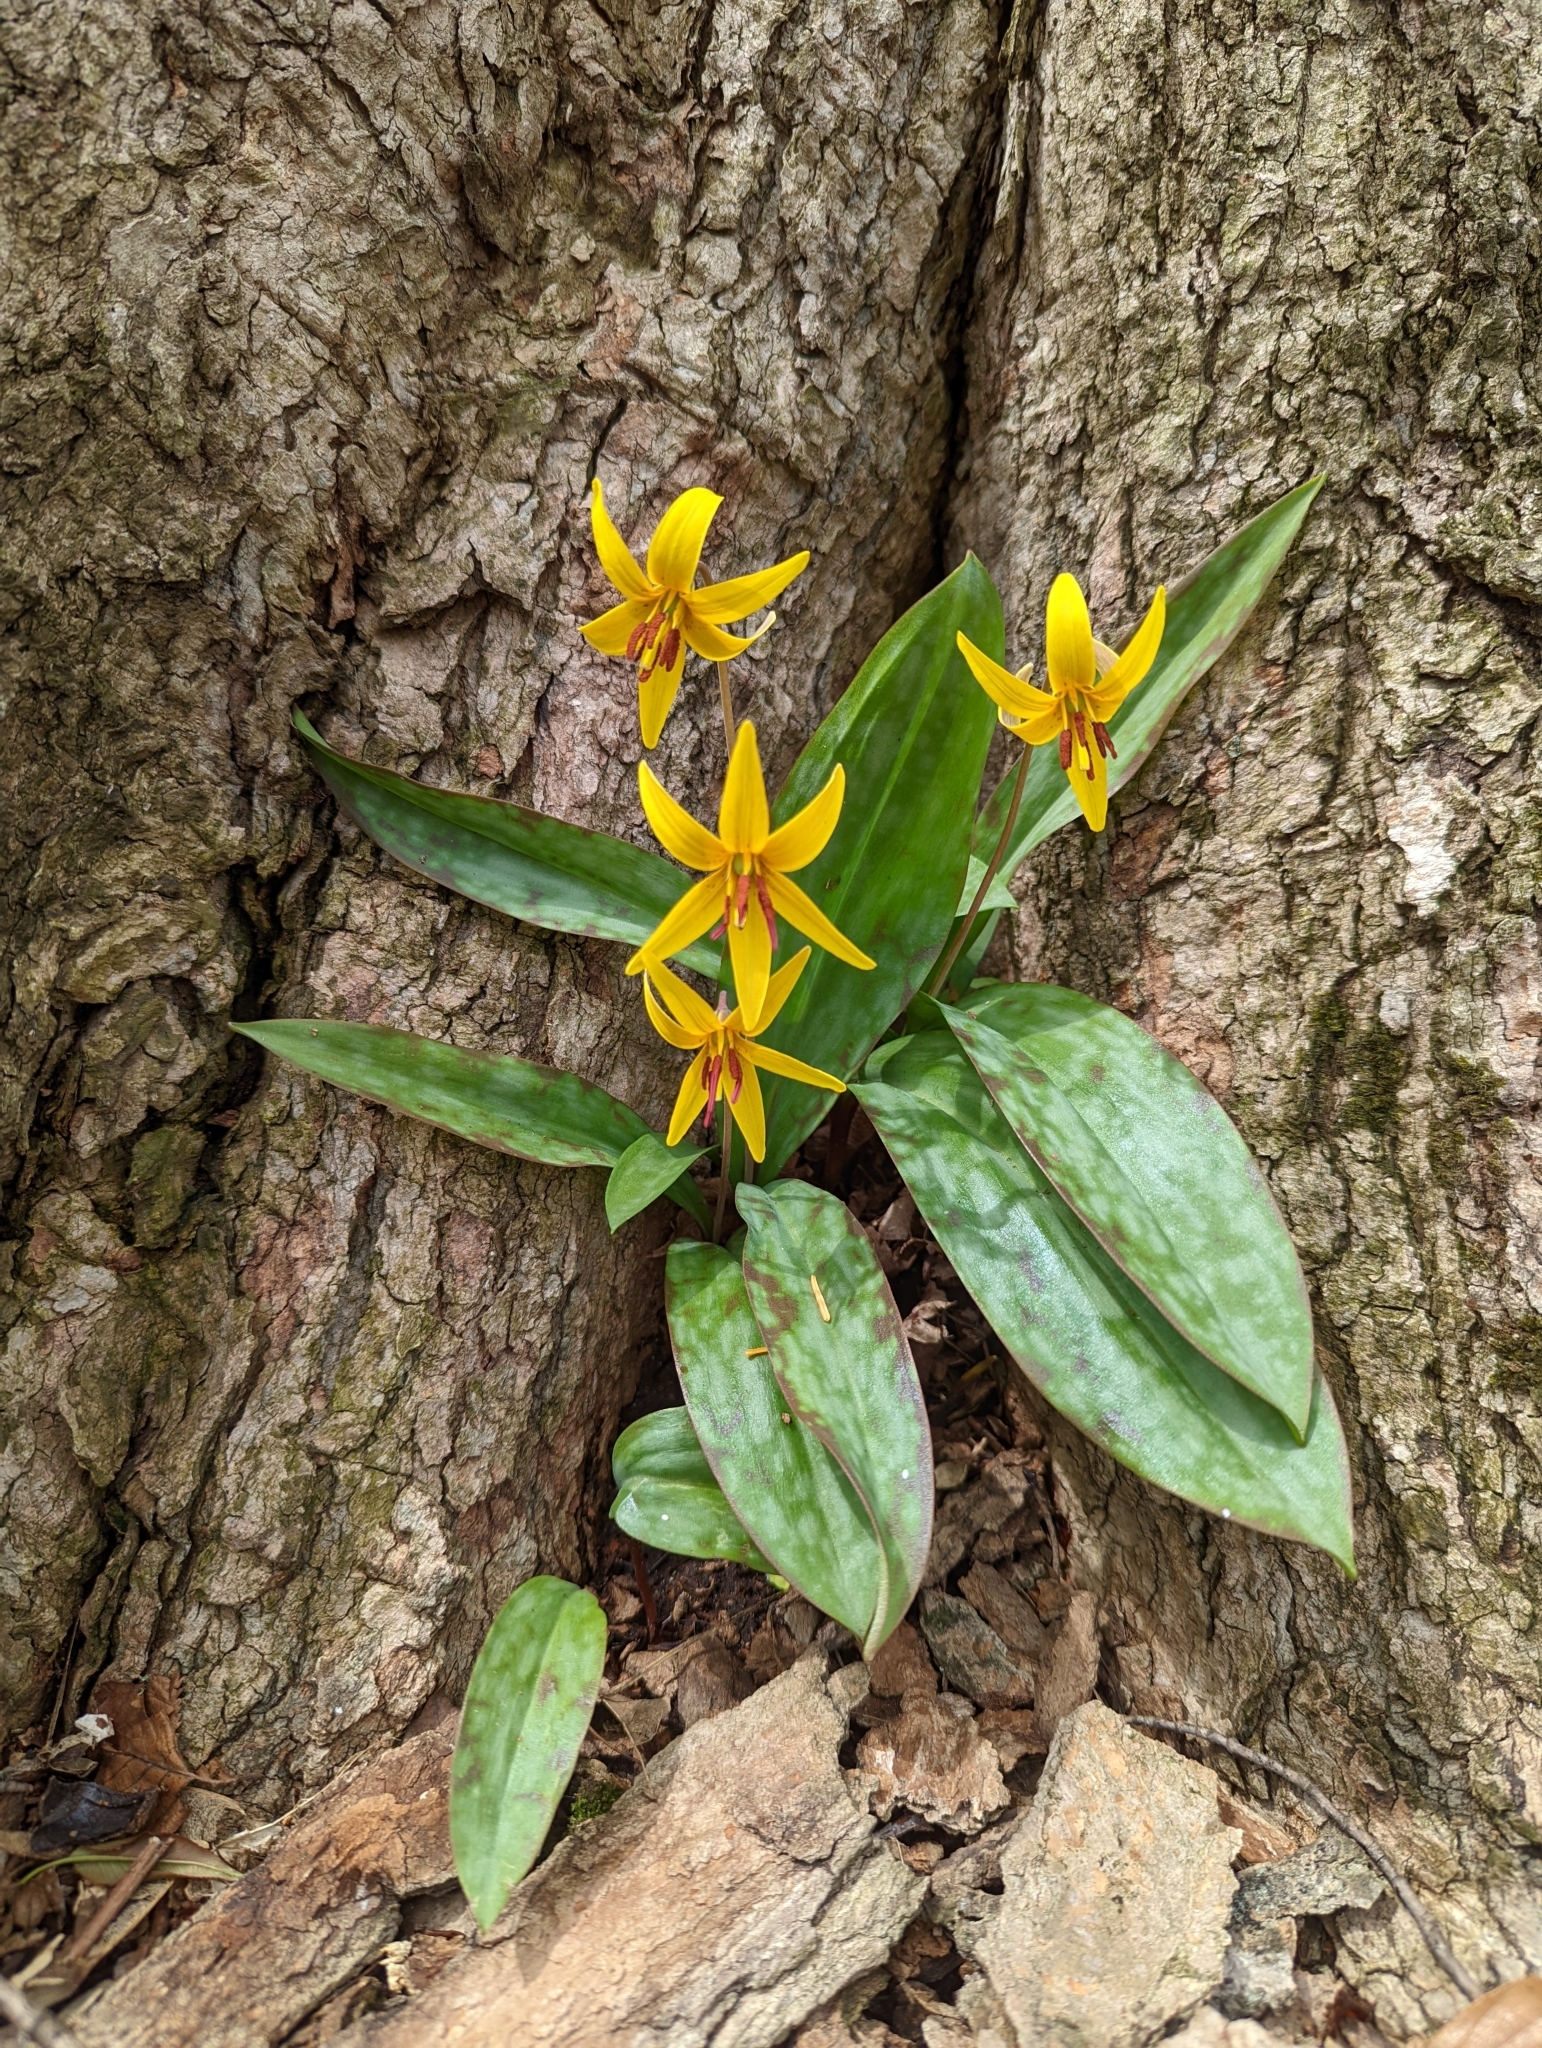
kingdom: Plantae
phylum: Tracheophyta
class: Liliopsida
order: Liliales
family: Liliaceae
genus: Erythronium
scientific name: Erythronium americanum
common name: Yellow adder's-tongue
